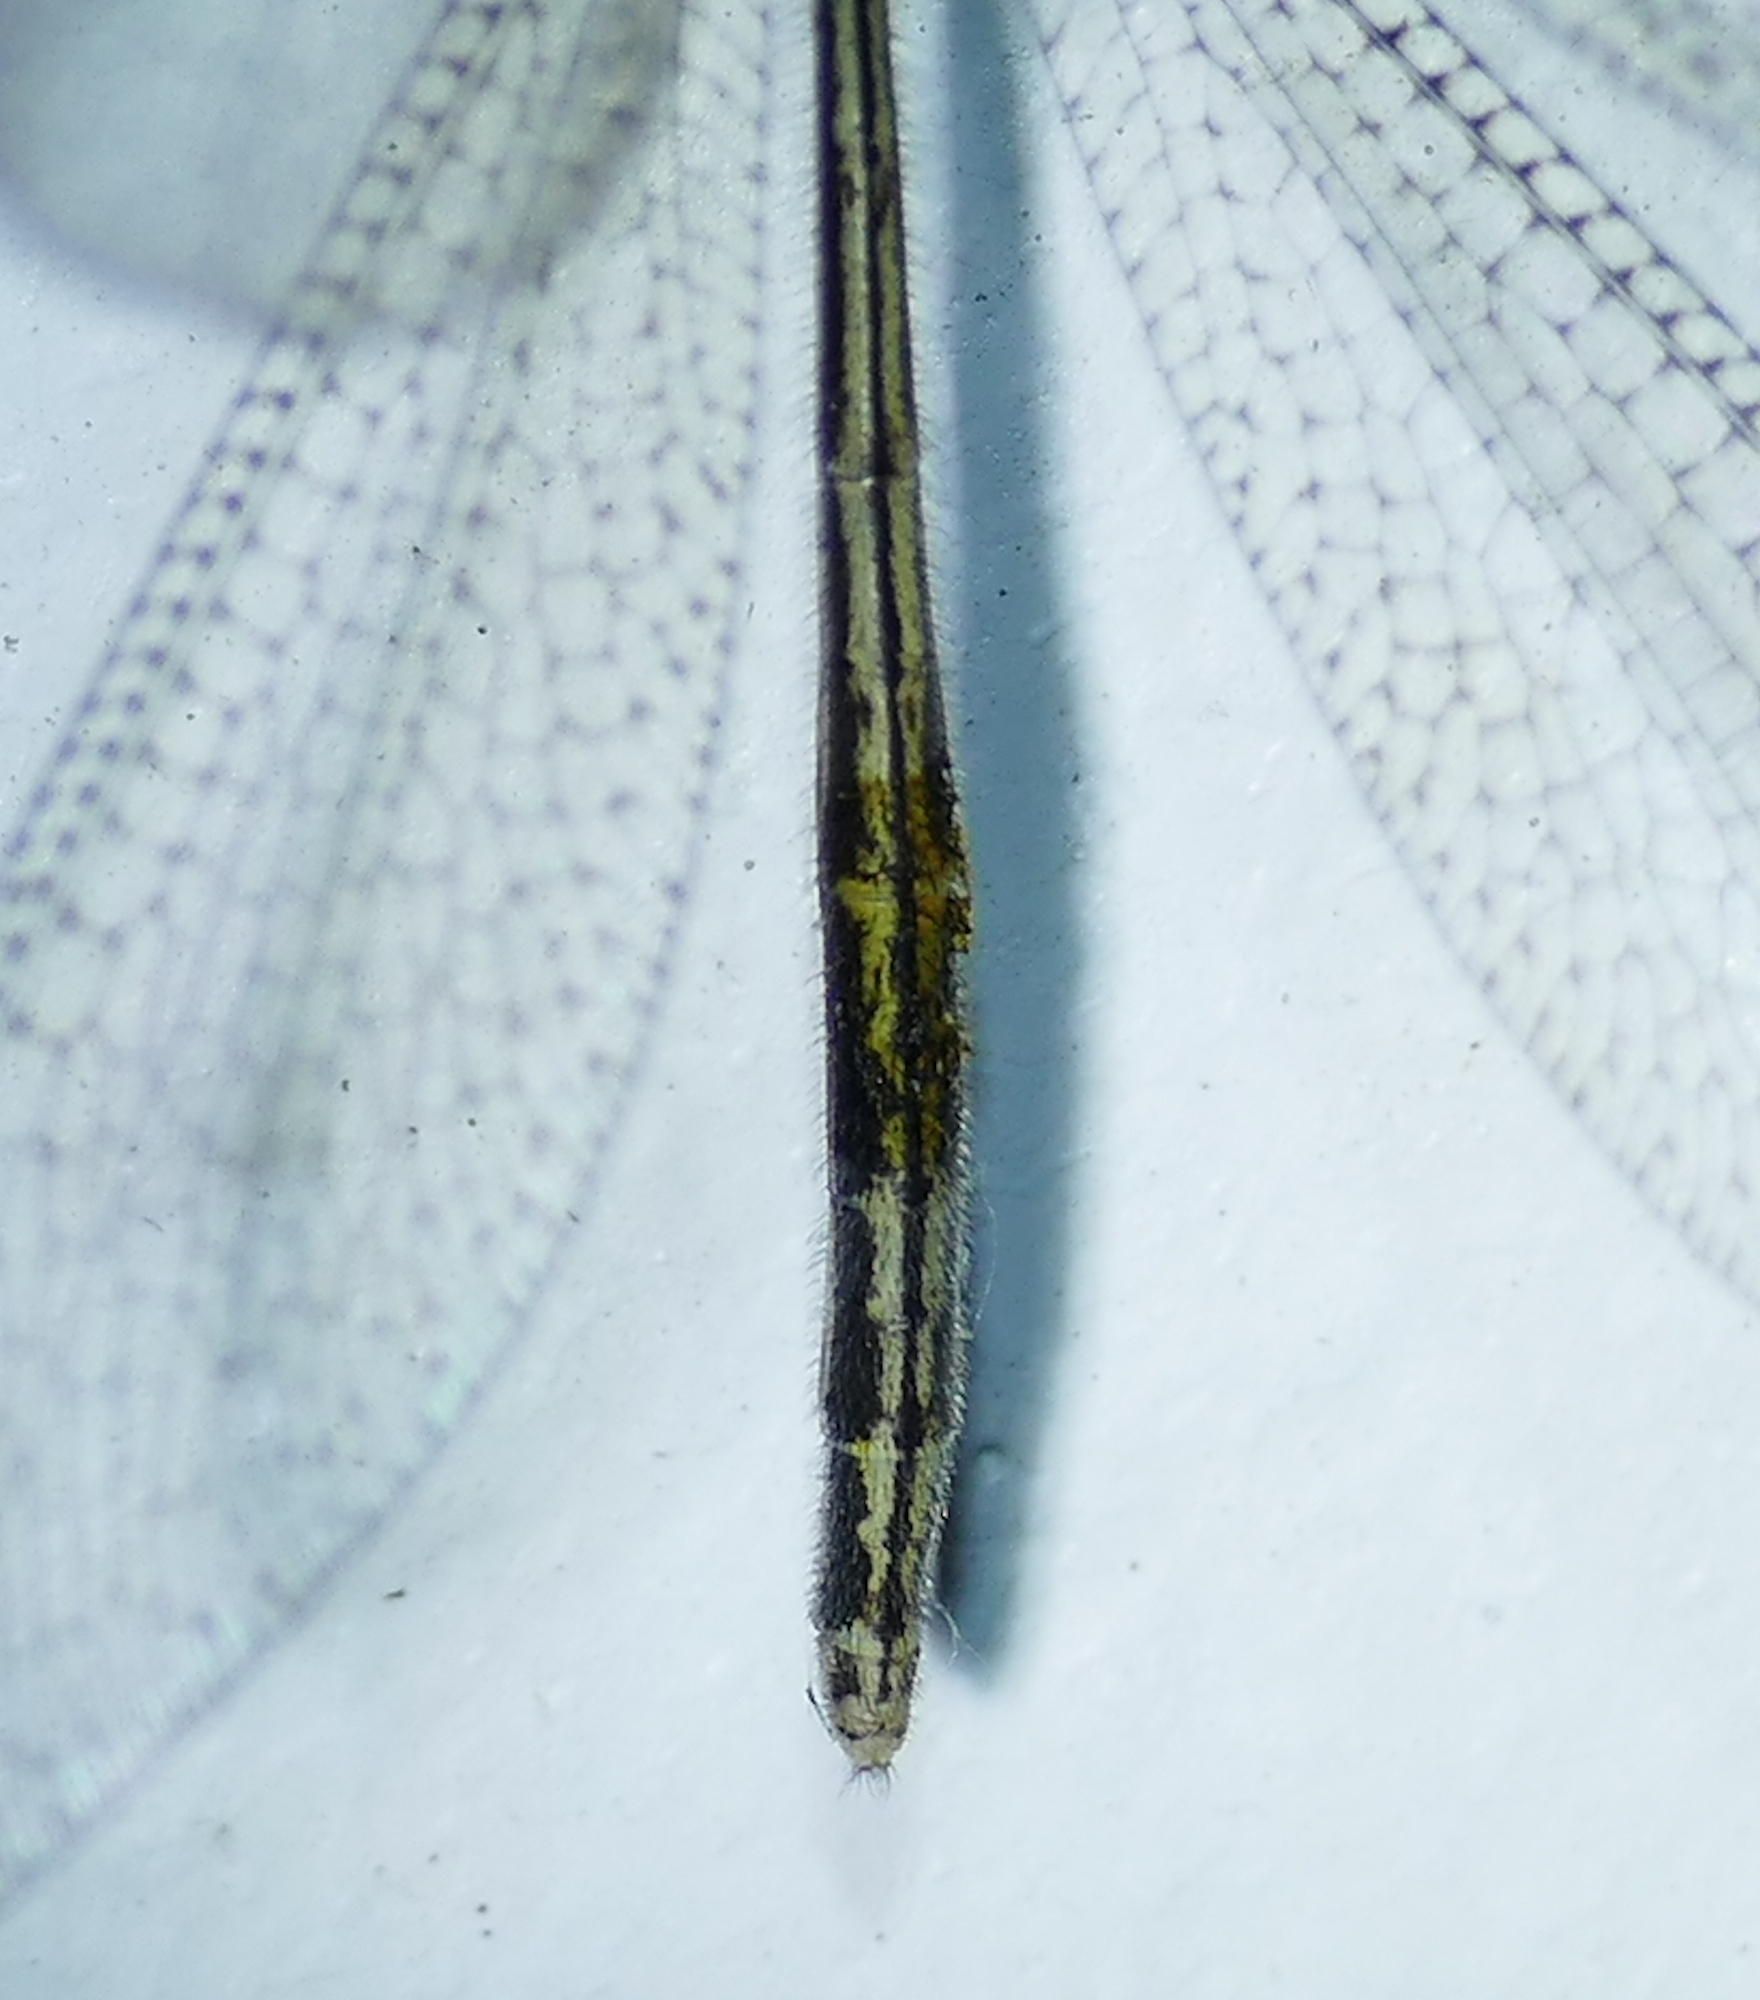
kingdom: Animalia
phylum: Arthropoda
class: Insecta
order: Neuroptera
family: Myrmeleontidae
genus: Brachynemurus
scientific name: Brachynemurus versutus
